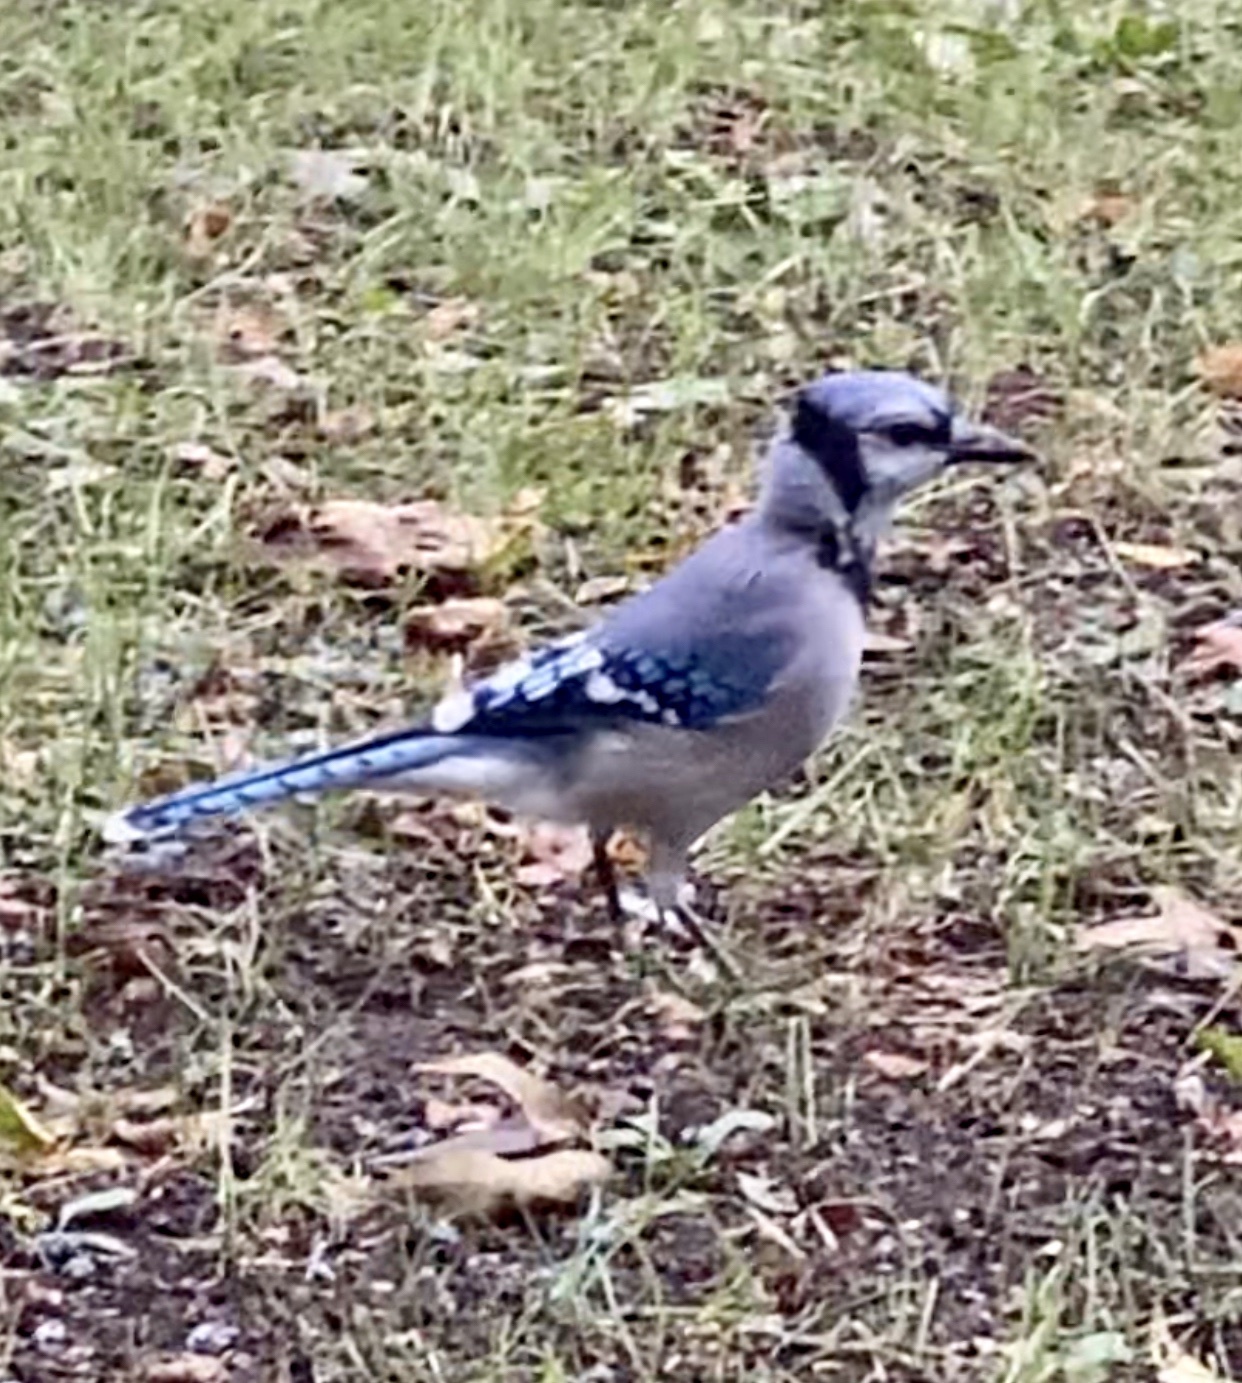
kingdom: Animalia
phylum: Chordata
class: Aves
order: Passeriformes
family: Corvidae
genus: Cyanocitta
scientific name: Cyanocitta cristata
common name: Blue jay
